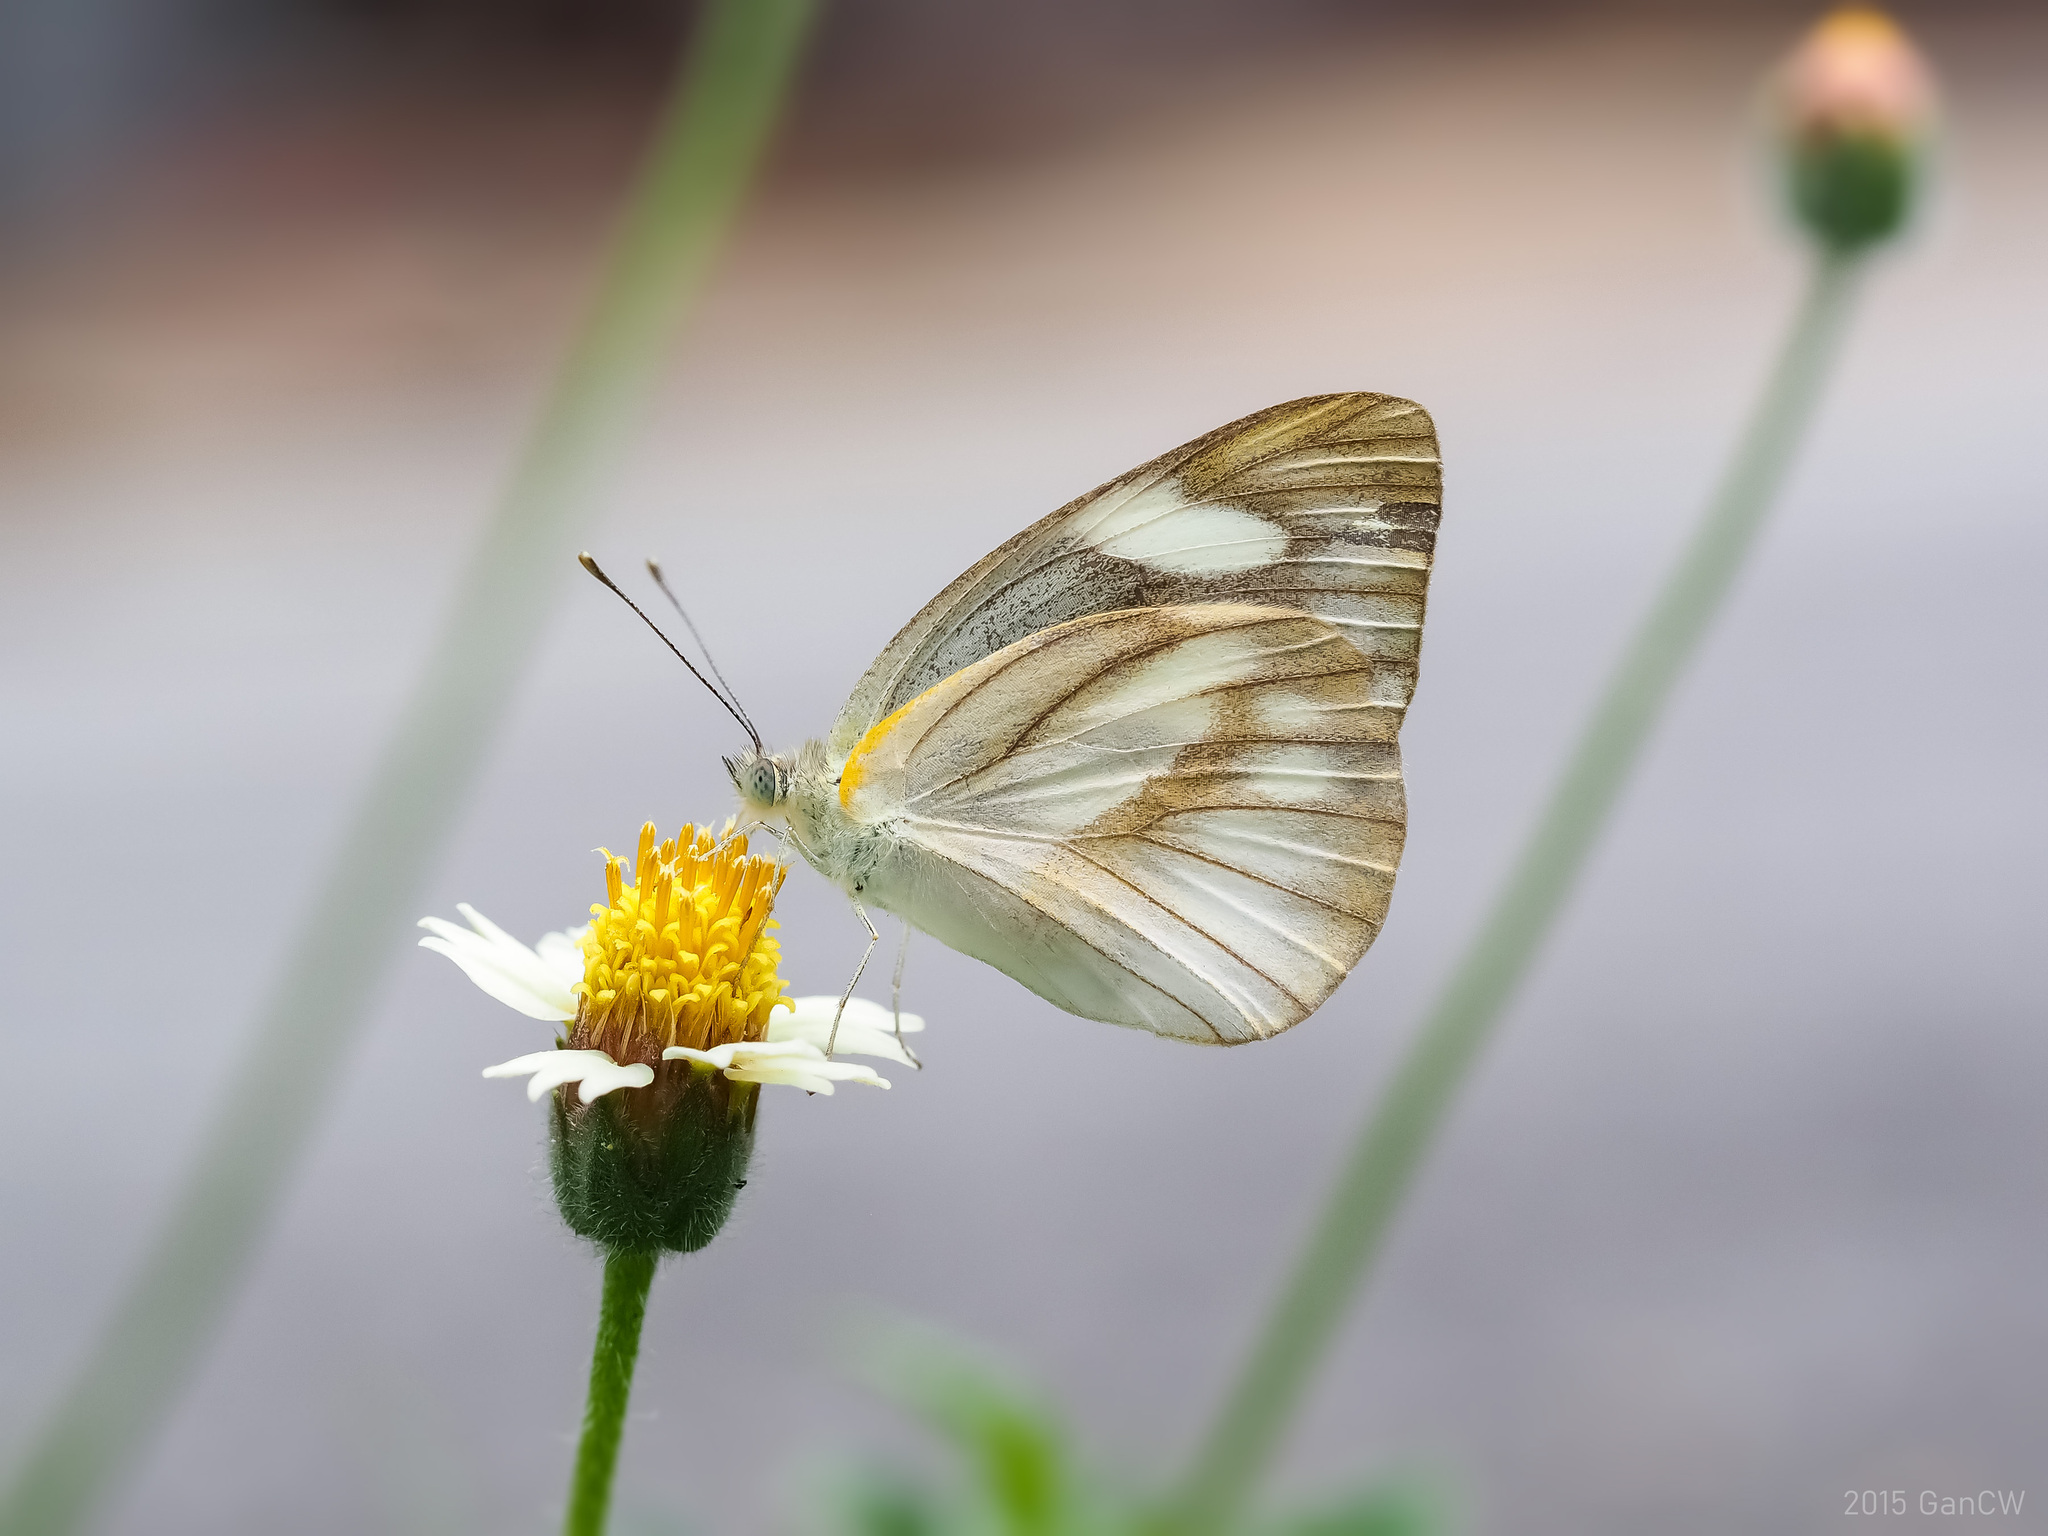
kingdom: Animalia
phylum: Arthropoda
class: Insecta
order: Lepidoptera
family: Pieridae
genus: Appias
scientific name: Appias libythea
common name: Striped albatross
